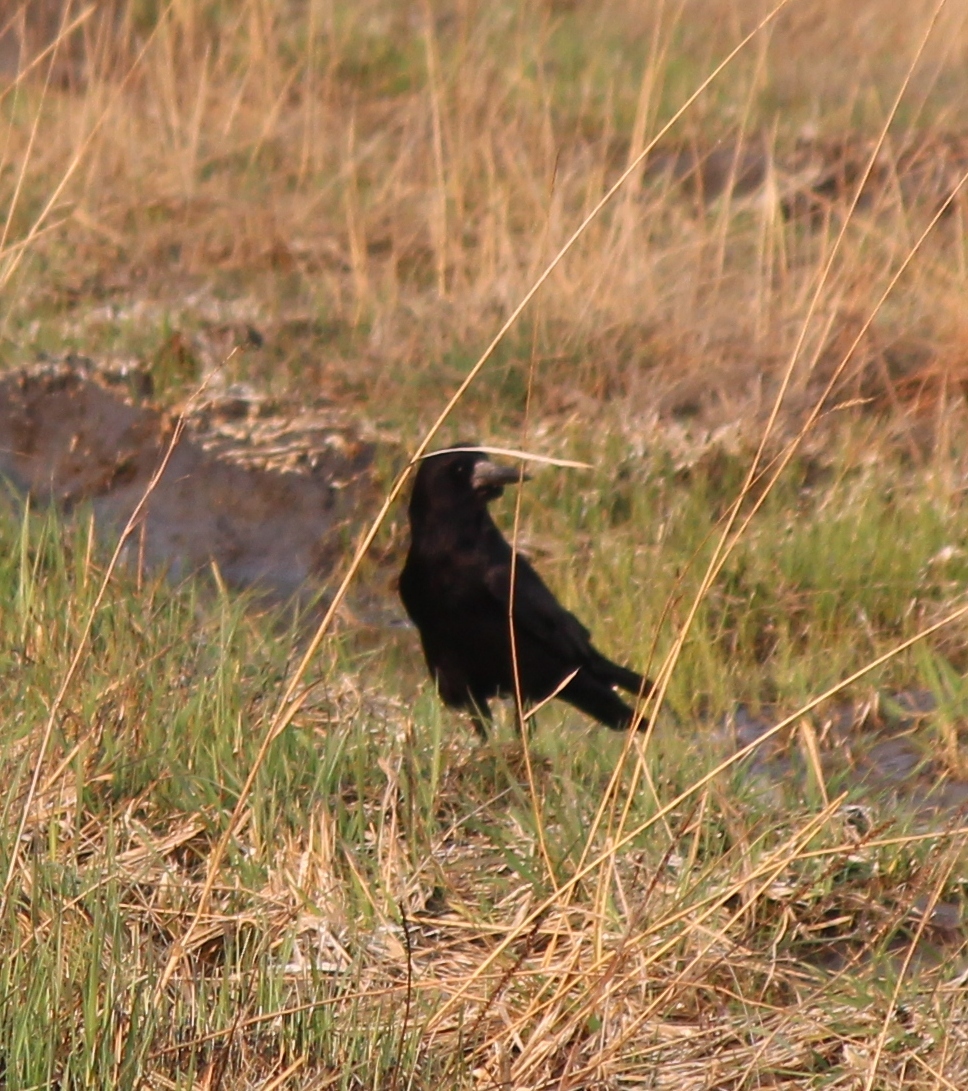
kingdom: Animalia
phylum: Chordata
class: Aves
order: Passeriformes
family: Corvidae
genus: Corvus
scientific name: Corvus frugilegus
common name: Rook
